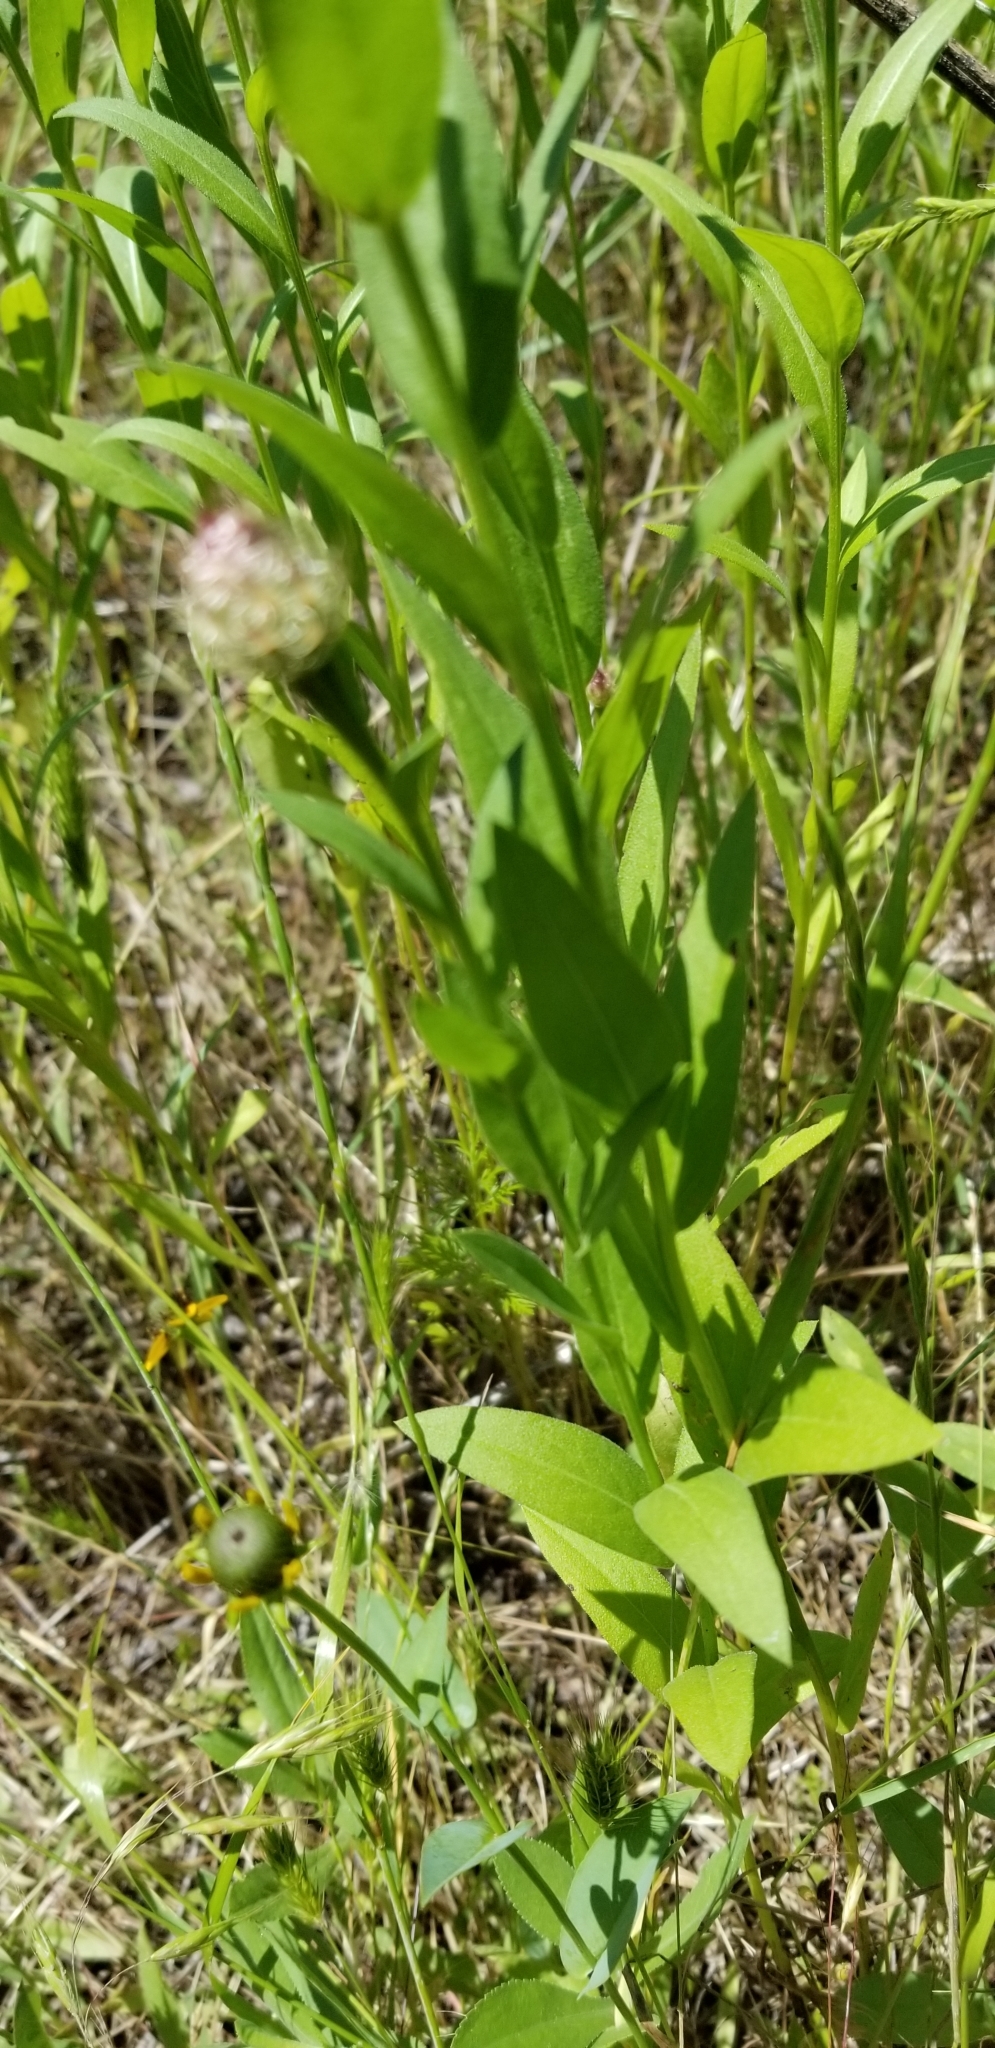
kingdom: Plantae
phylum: Tracheophyta
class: Magnoliopsida
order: Asterales
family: Asteraceae
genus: Plectocephalus
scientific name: Plectocephalus americanus
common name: American basket-flower
